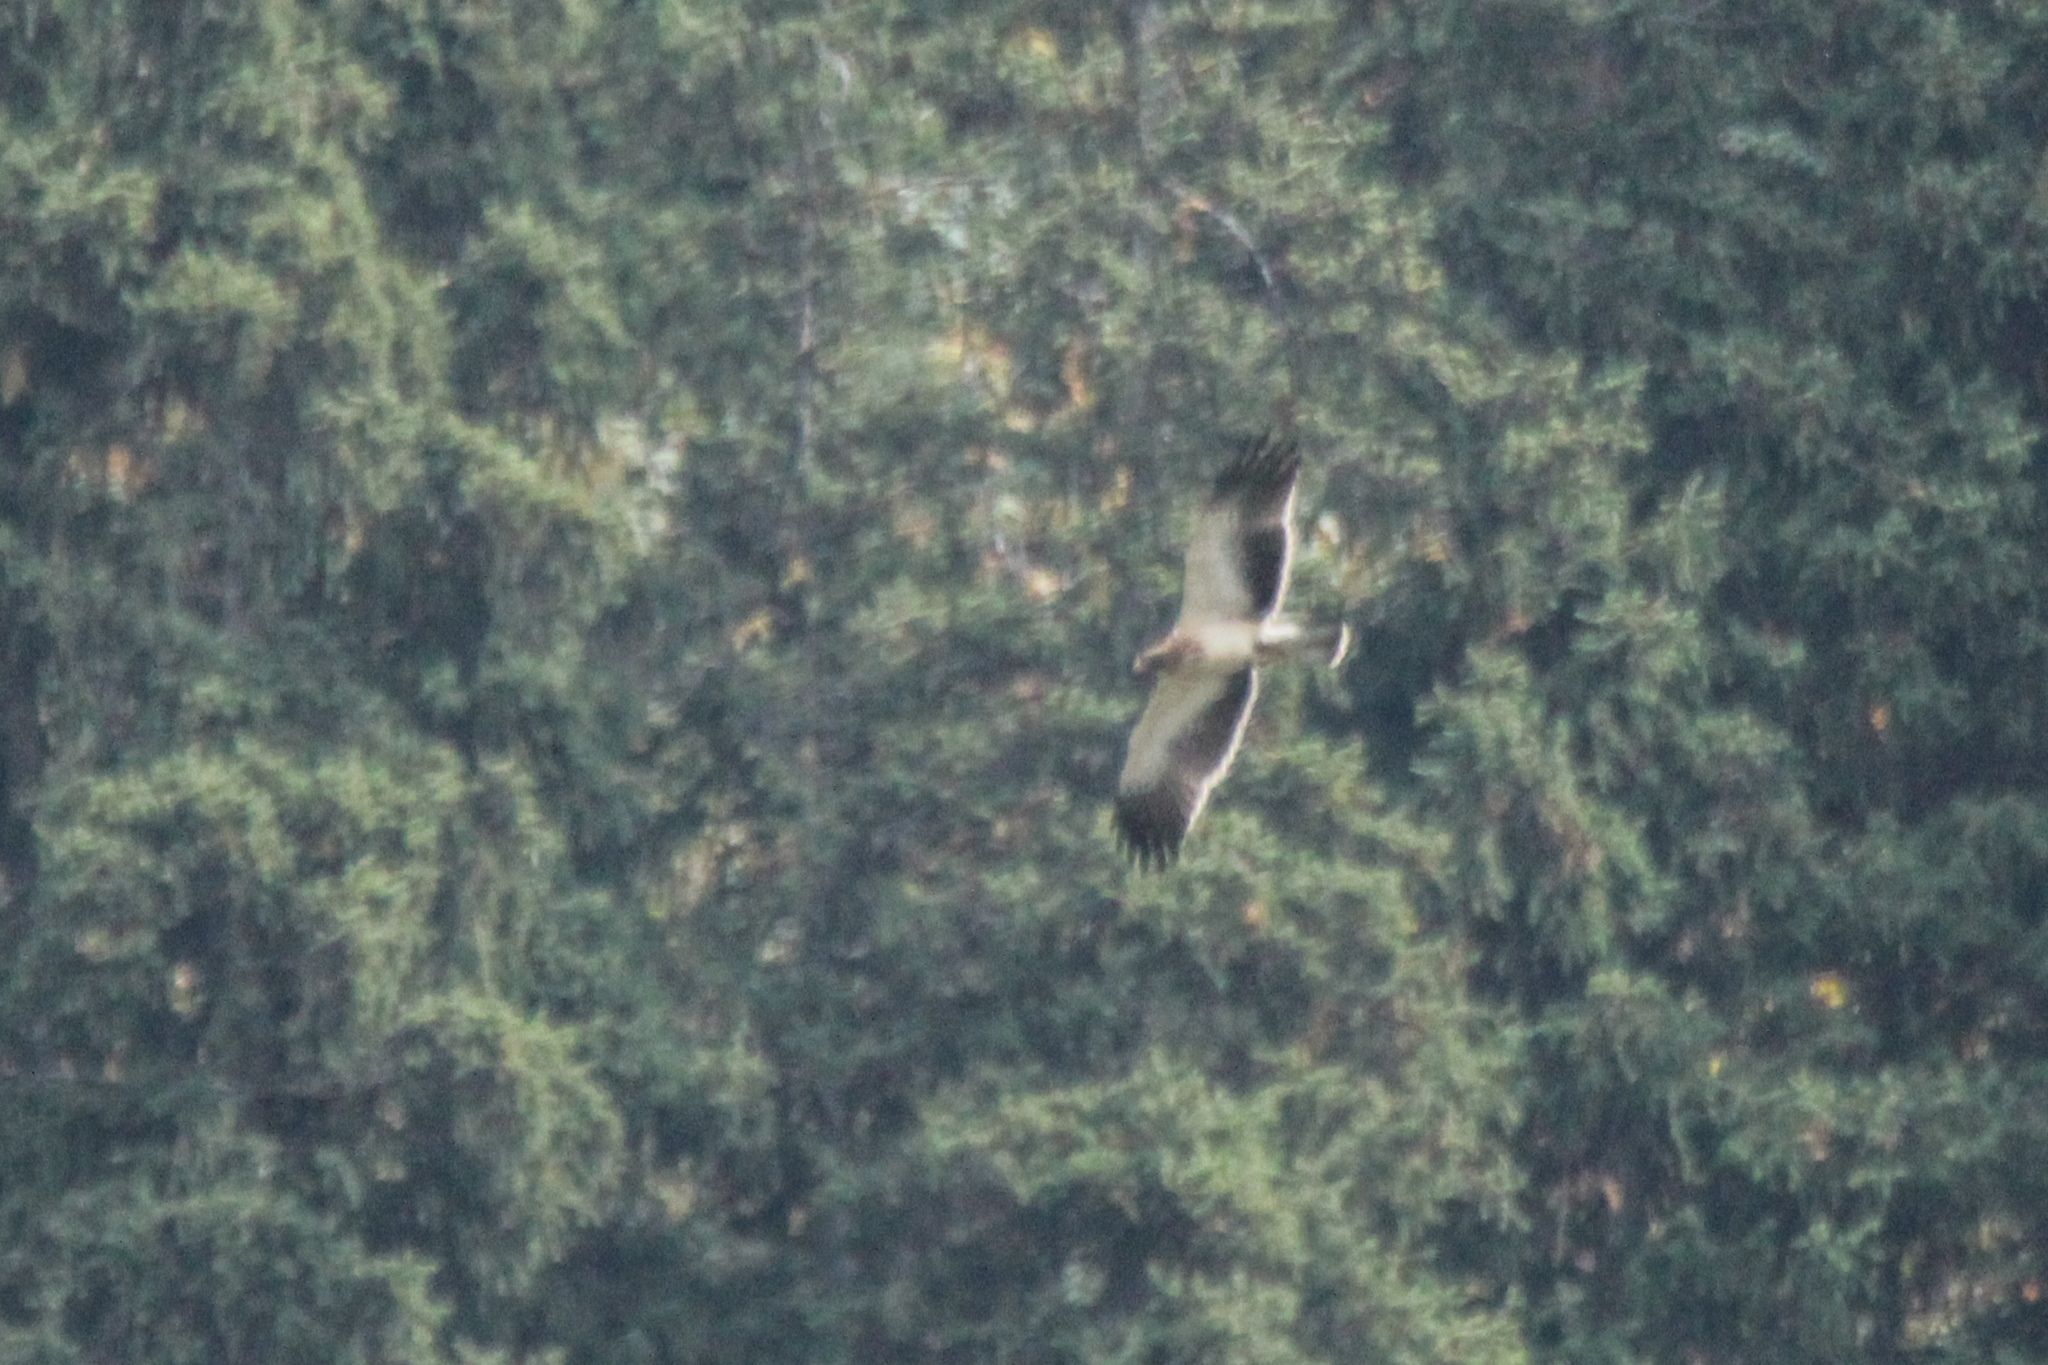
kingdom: Animalia
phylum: Chordata
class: Aves
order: Accipitriformes
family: Accipitridae
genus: Hieraaetus
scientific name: Hieraaetus pennatus
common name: Booted eagle
